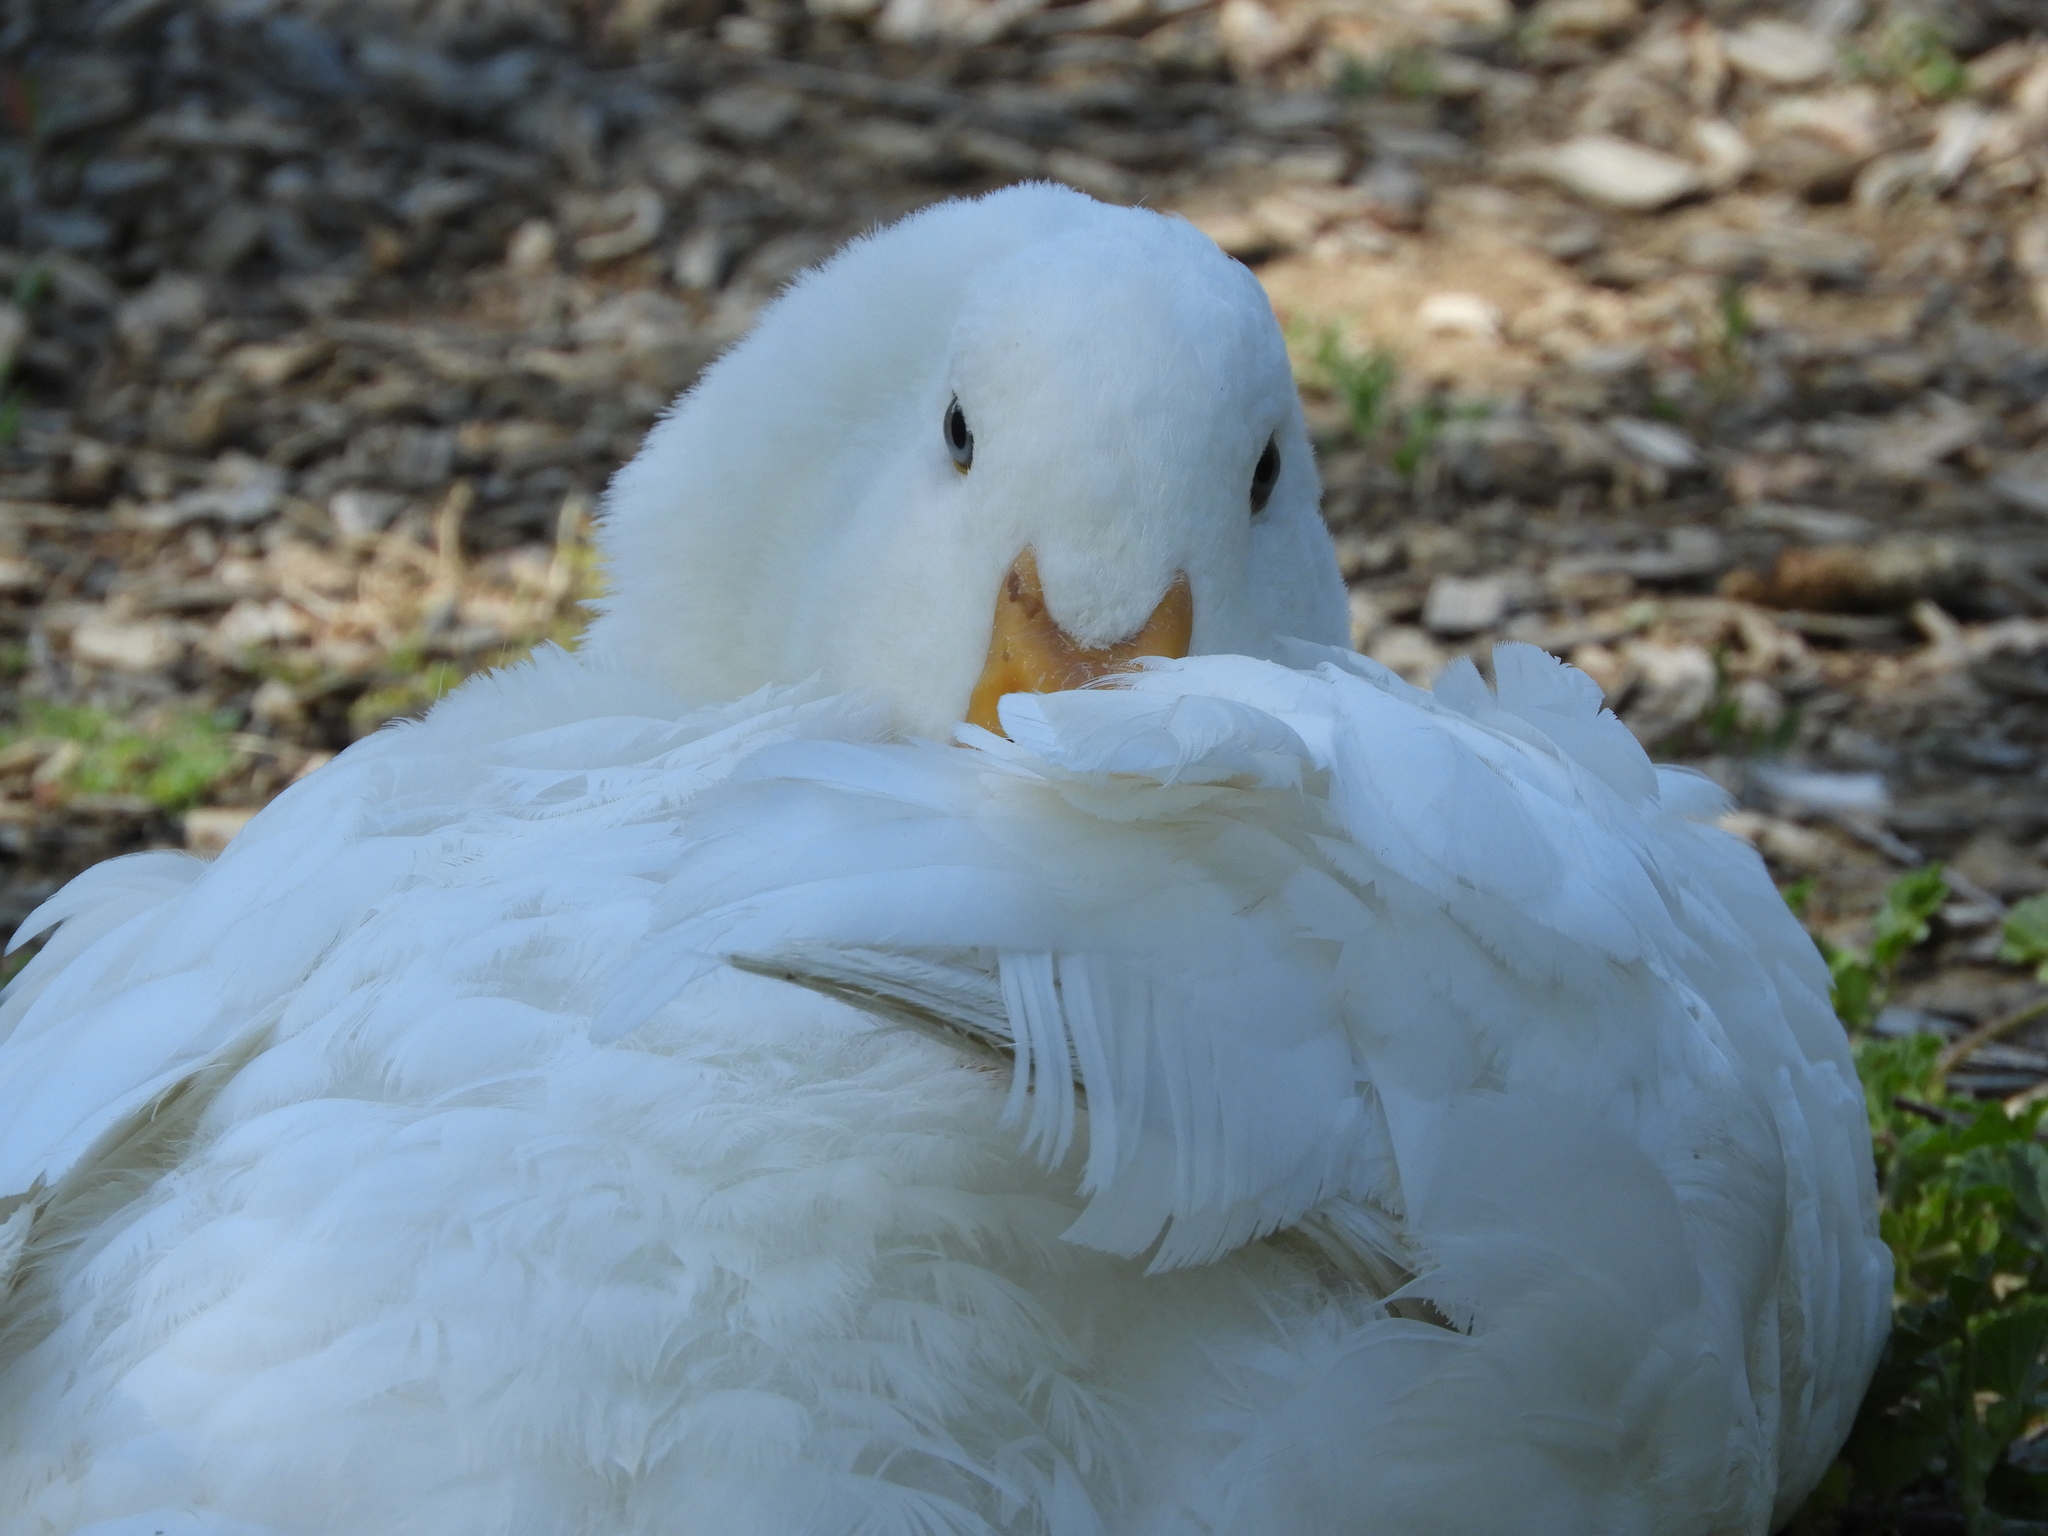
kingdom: Animalia
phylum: Chordata
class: Aves
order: Anseriformes
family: Anatidae
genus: Anas
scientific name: Anas platyrhynchos
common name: Mallard
